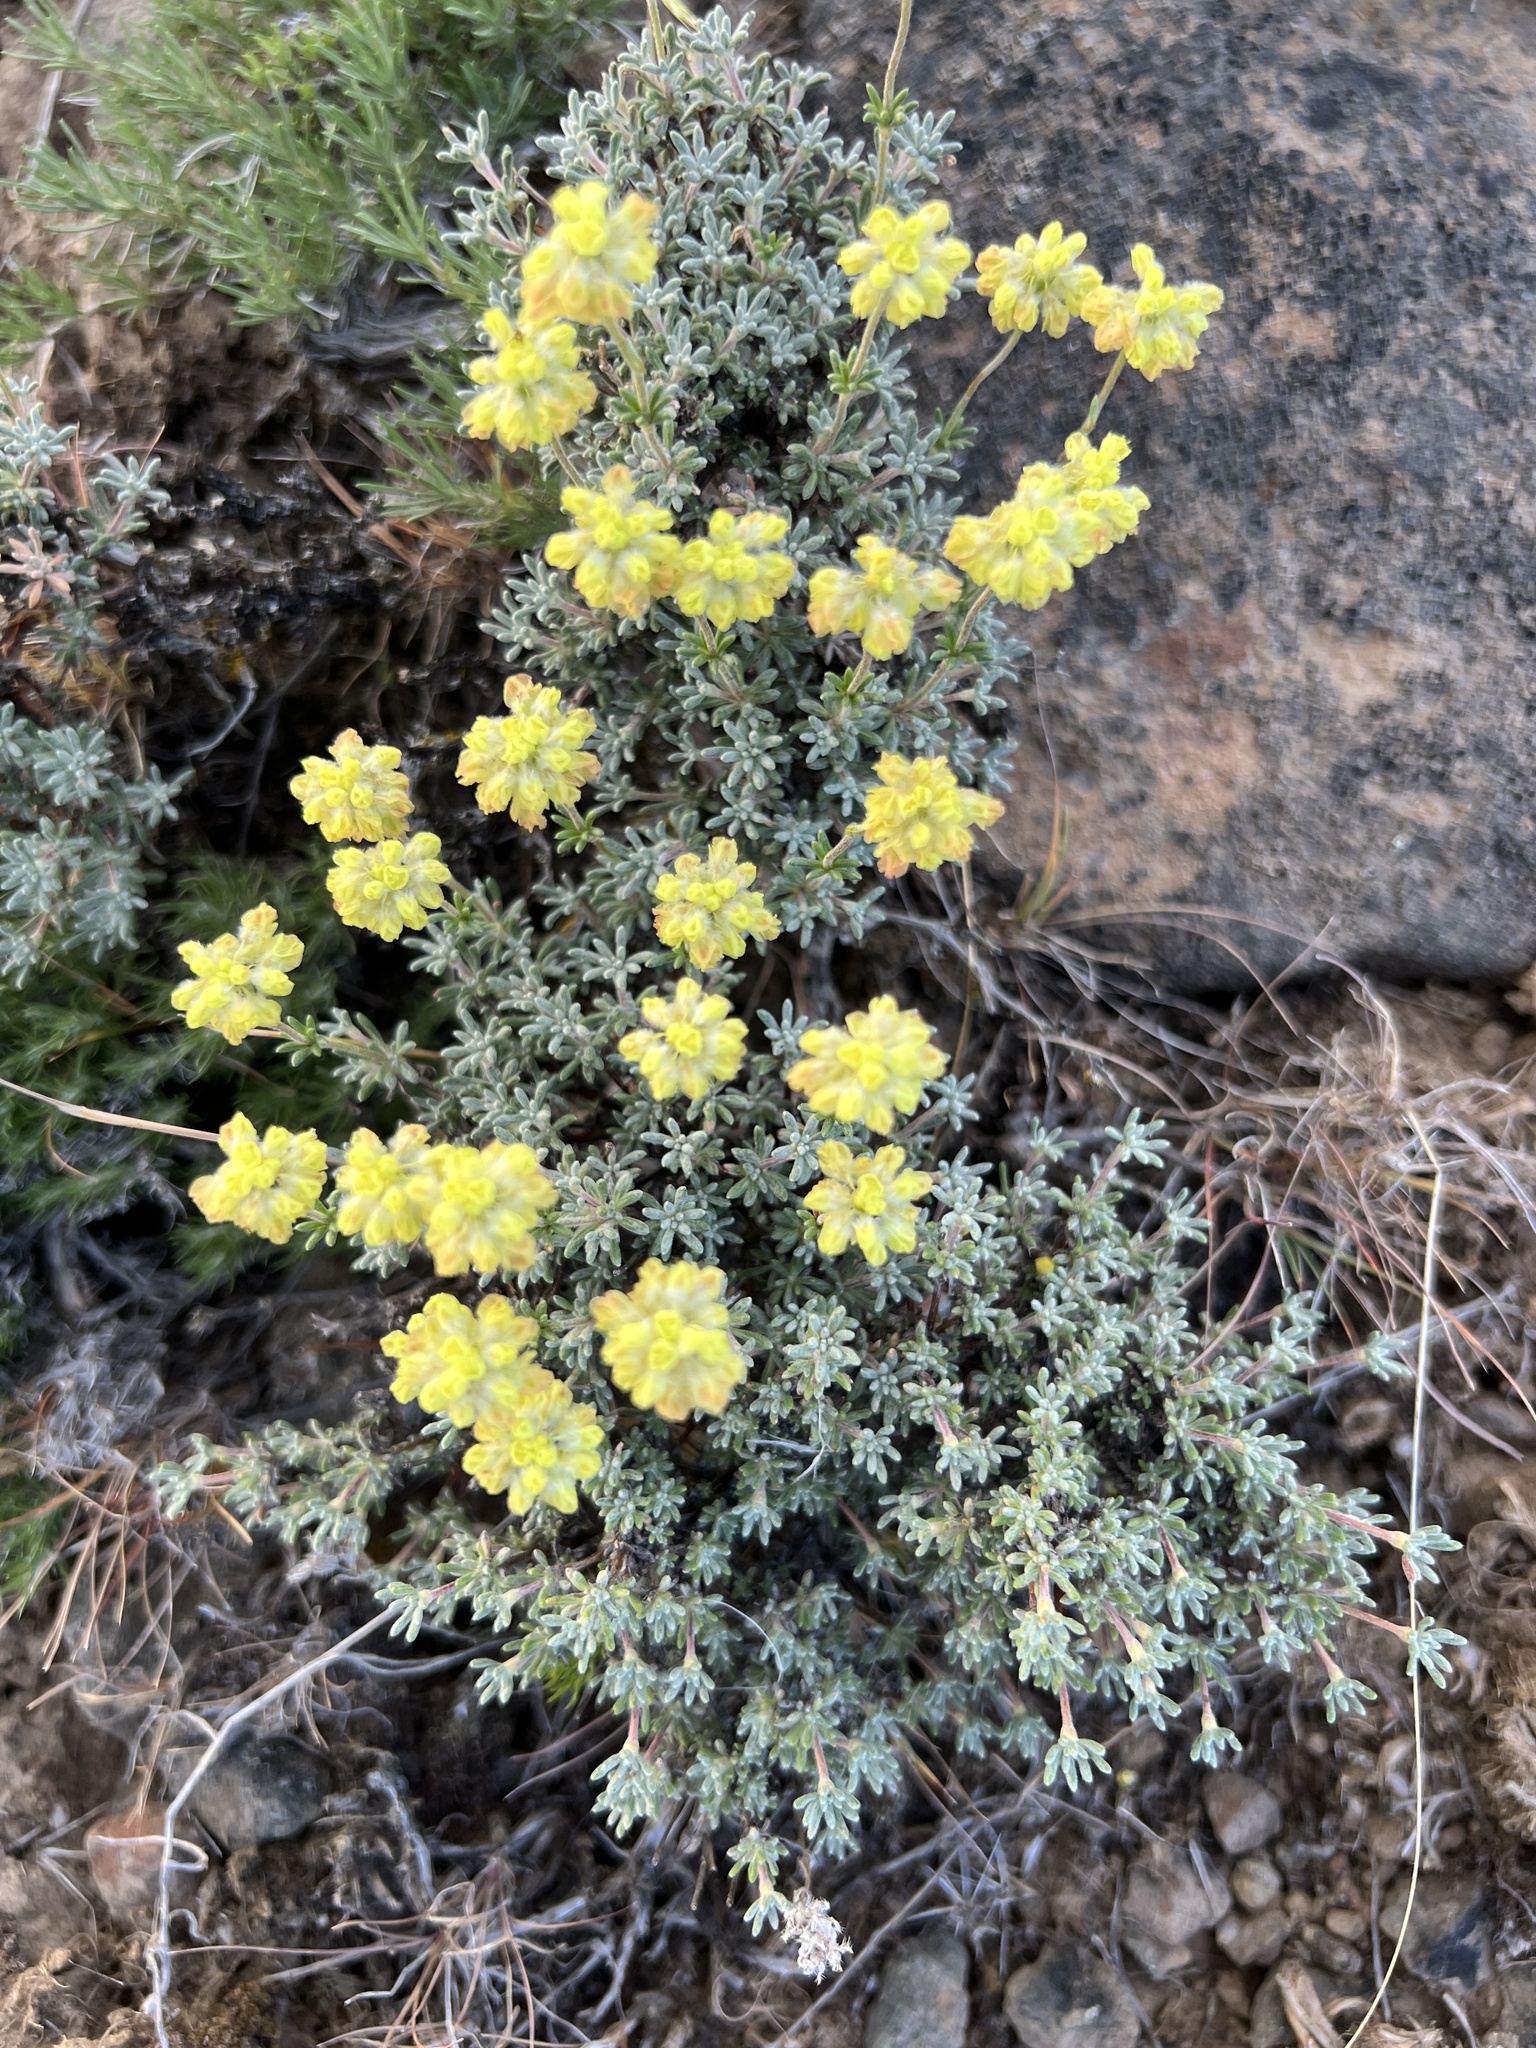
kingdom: Plantae
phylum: Tracheophyta
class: Magnoliopsida
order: Caryophyllales
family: Polygonaceae
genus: Eriogonum
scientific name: Eriogonum thymoides
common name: Thyme-leaf wild buckwheat
